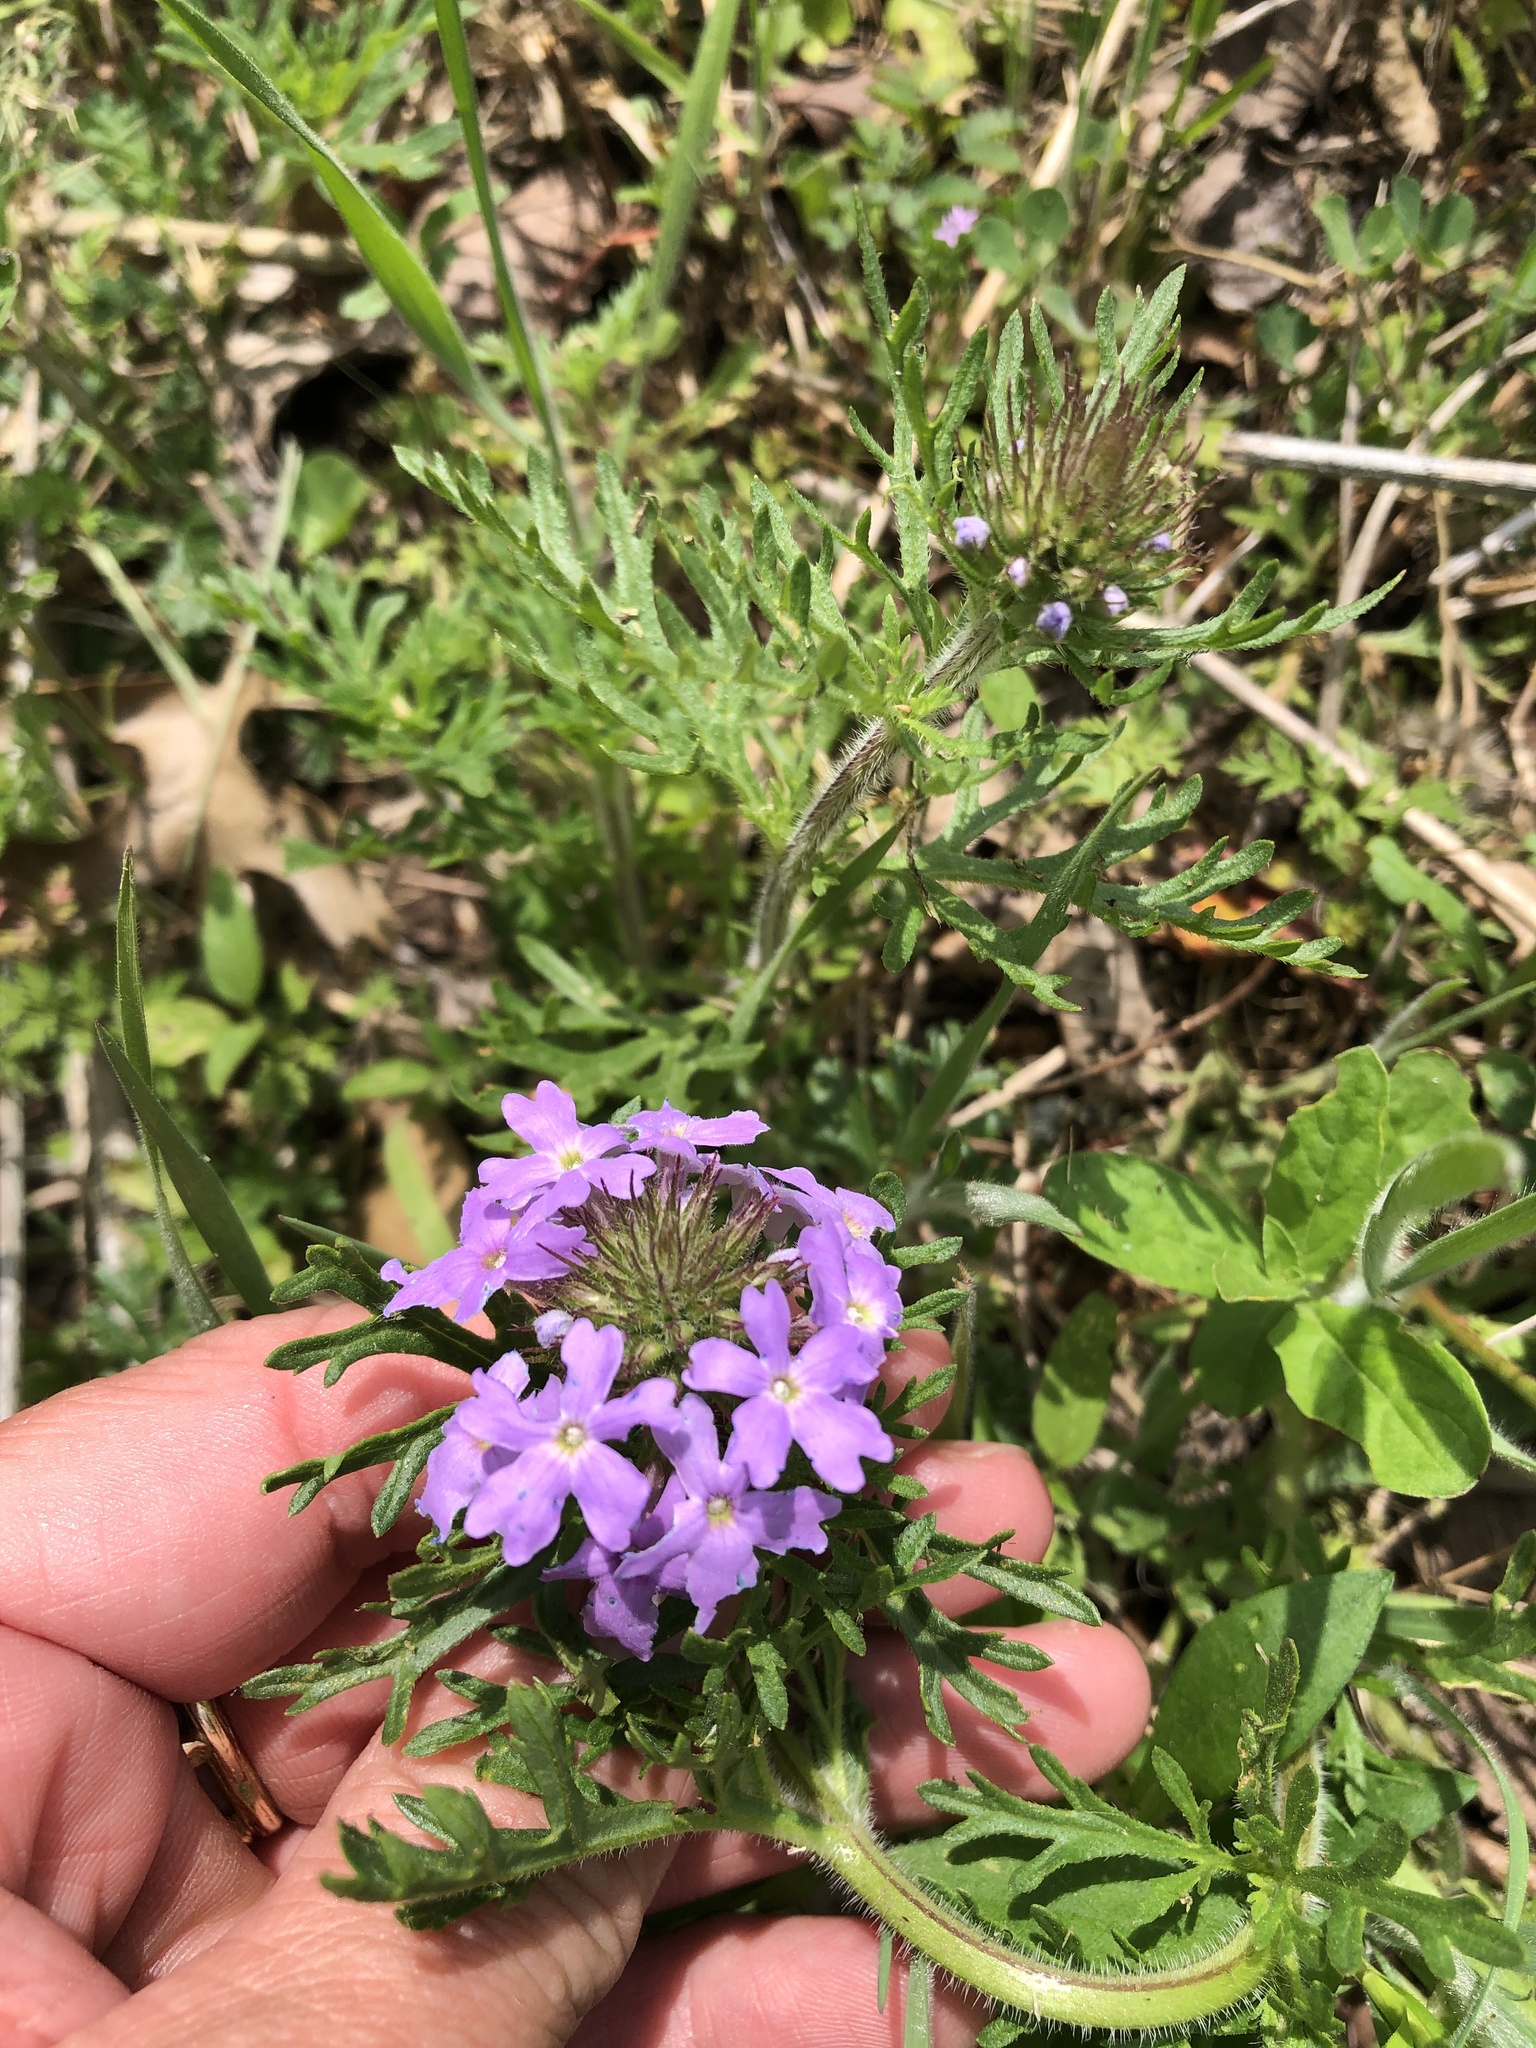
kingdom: Plantae
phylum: Tracheophyta
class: Magnoliopsida
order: Lamiales
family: Verbenaceae
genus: Verbena
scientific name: Verbena bipinnatifida
